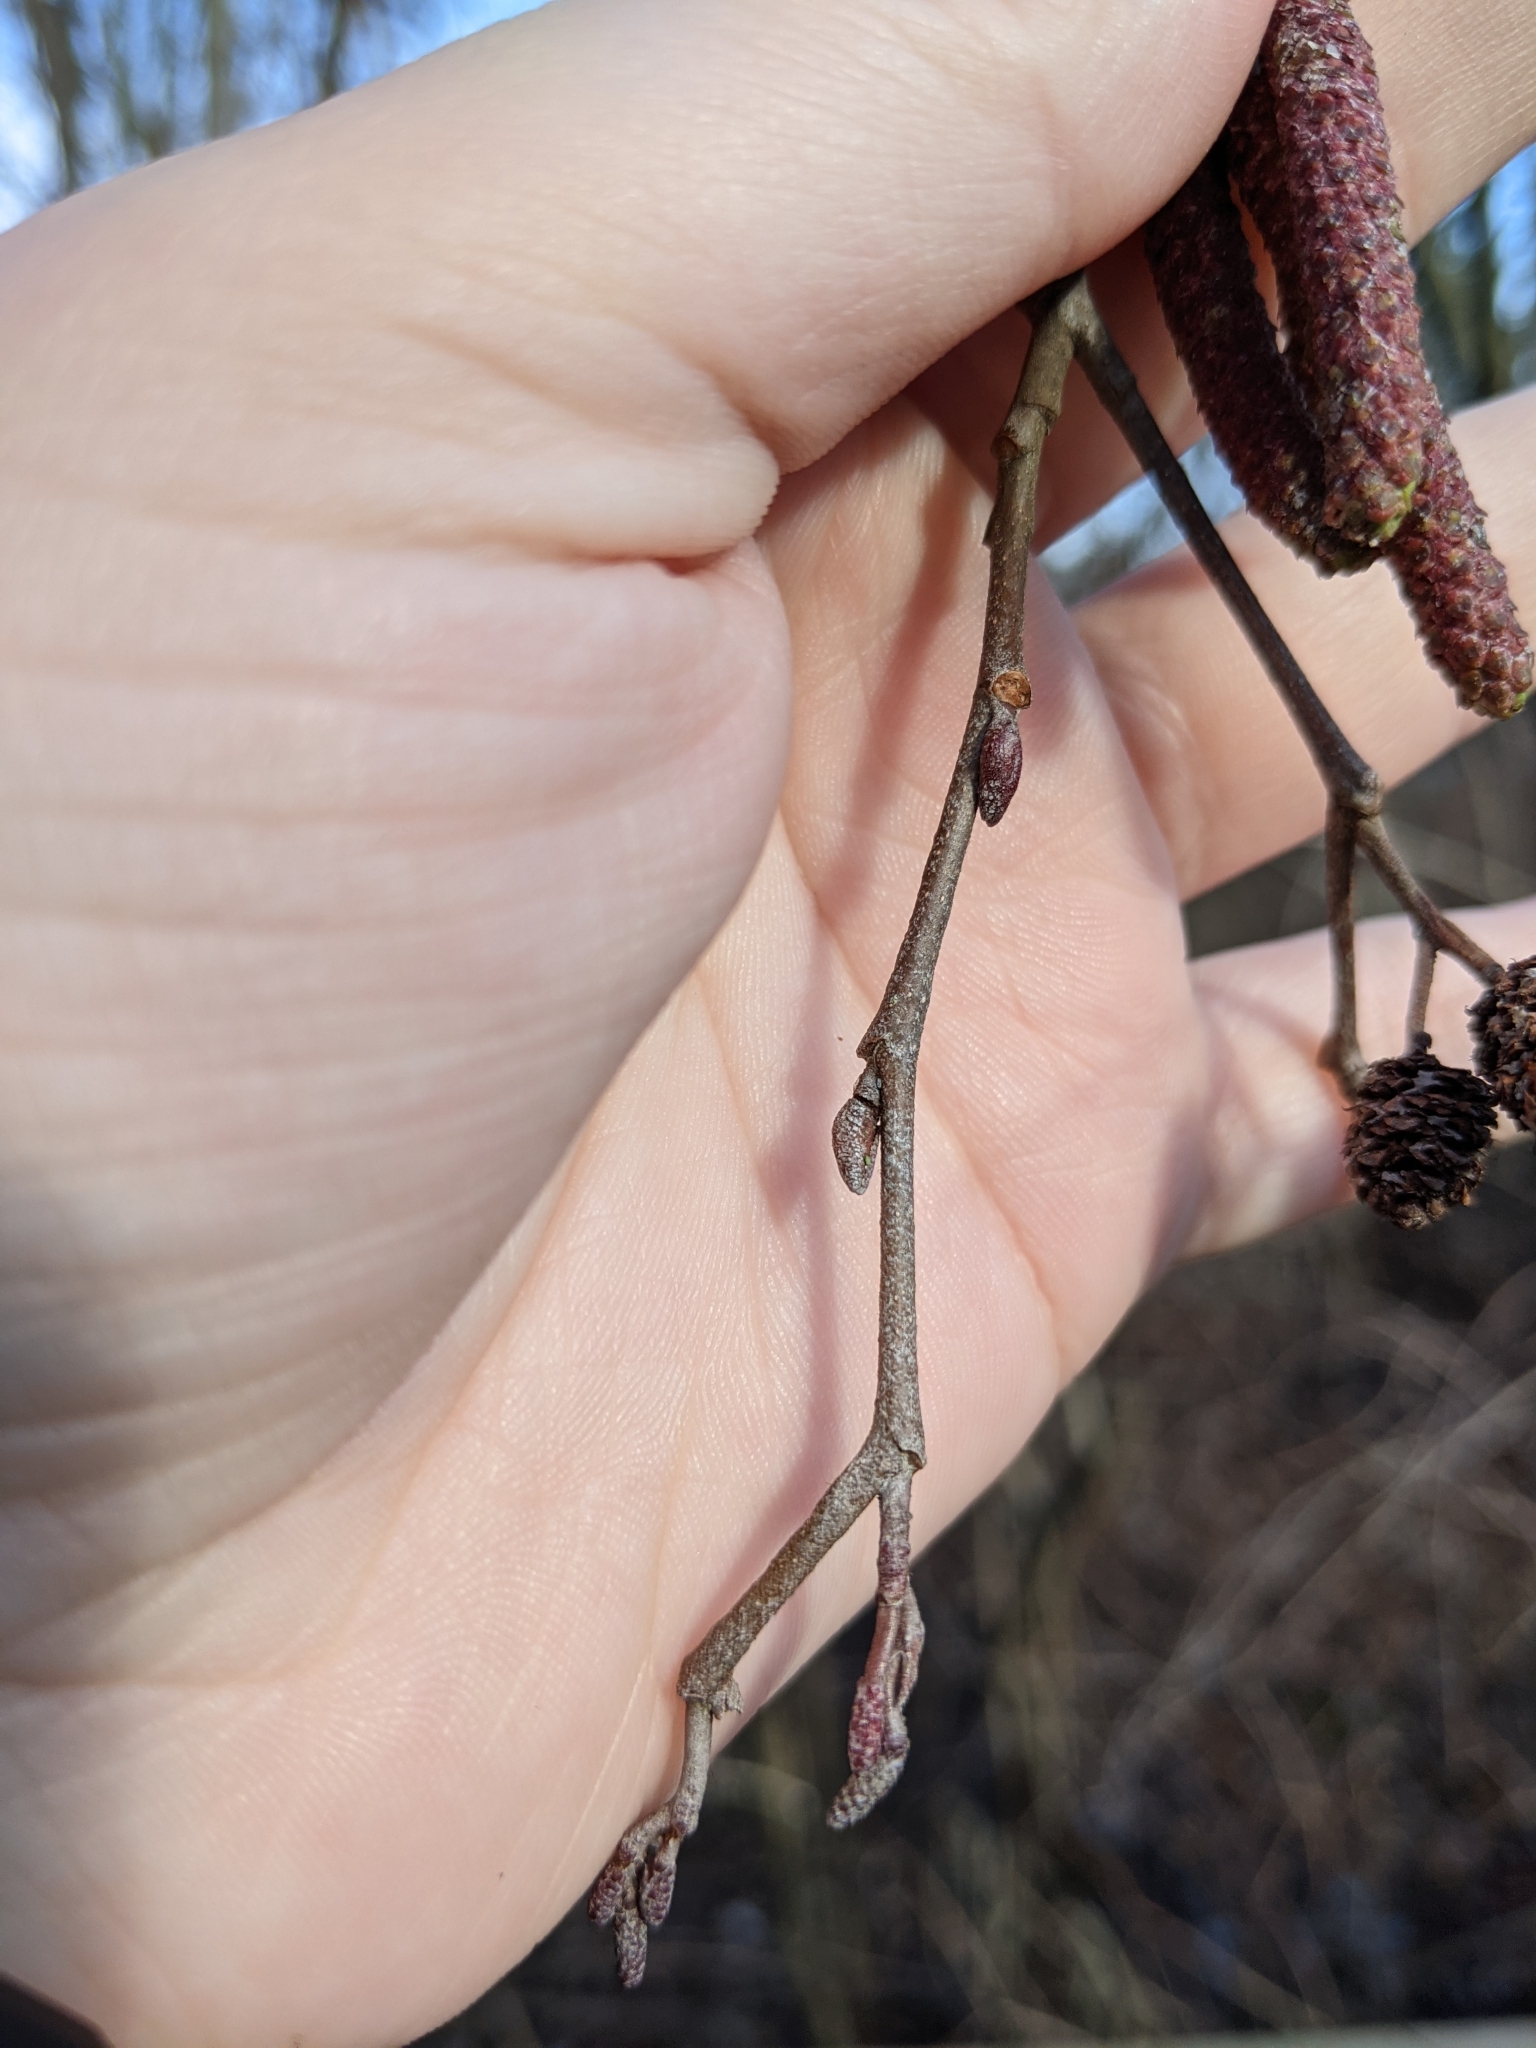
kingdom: Plantae
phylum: Tracheophyta
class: Magnoliopsida
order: Fagales
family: Betulaceae
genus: Alnus
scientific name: Alnus
